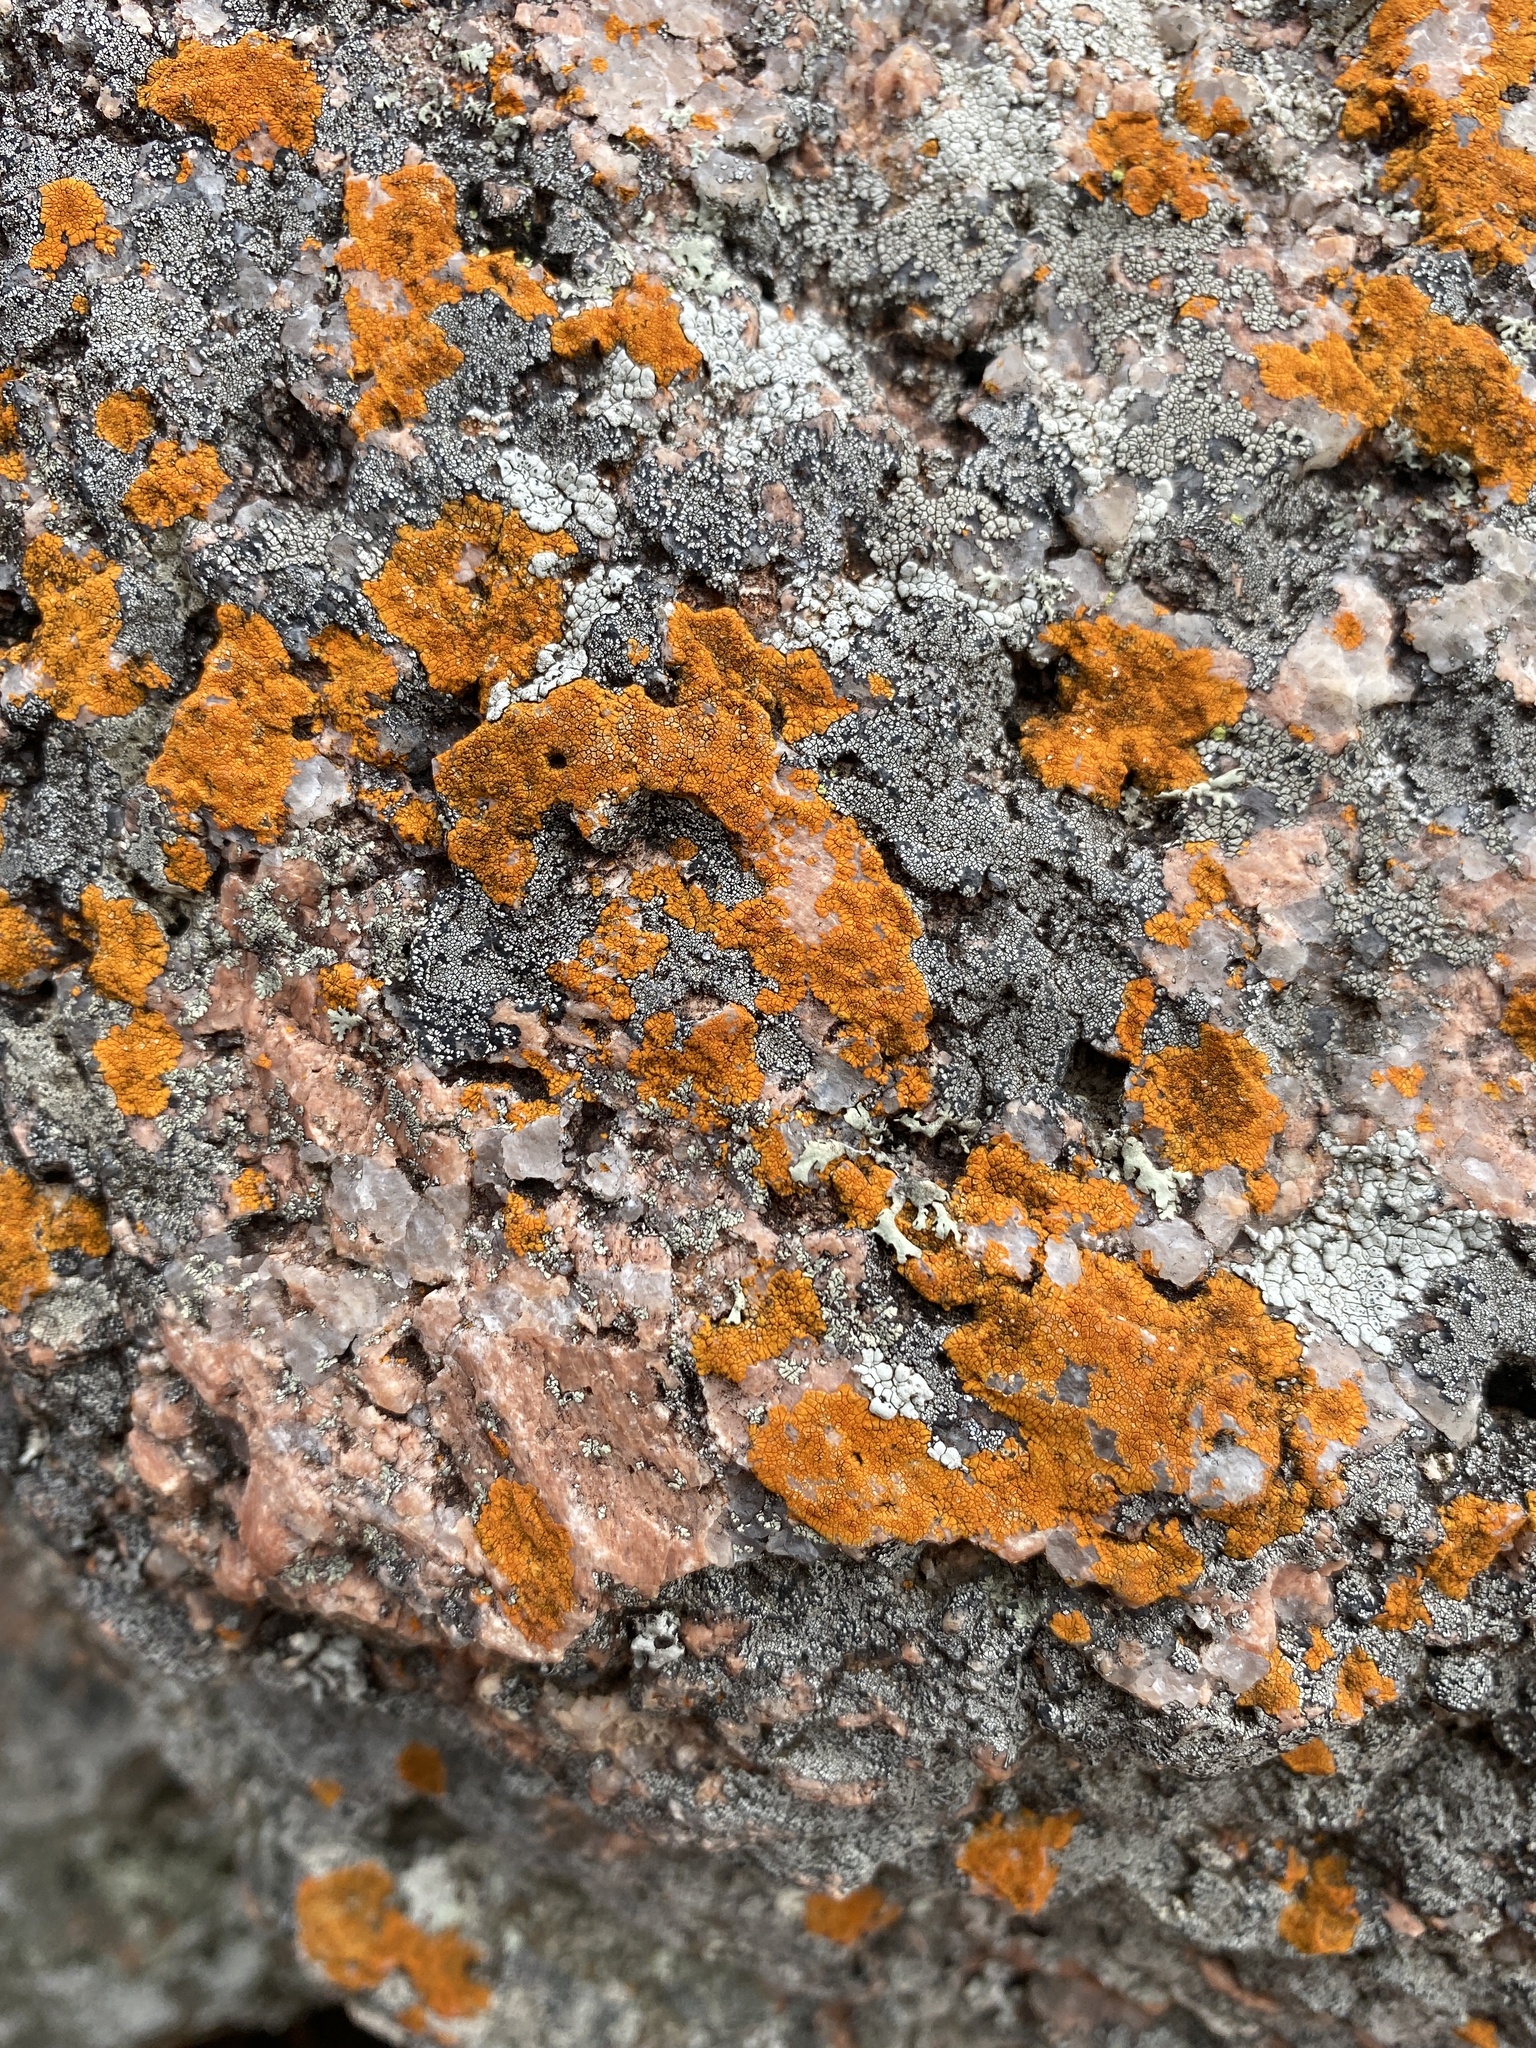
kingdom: Fungi
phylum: Ascomycota
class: Lecanoromycetes
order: Teloschistales
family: Teloschistaceae
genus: Squamulea
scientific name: Squamulea subsoluta
